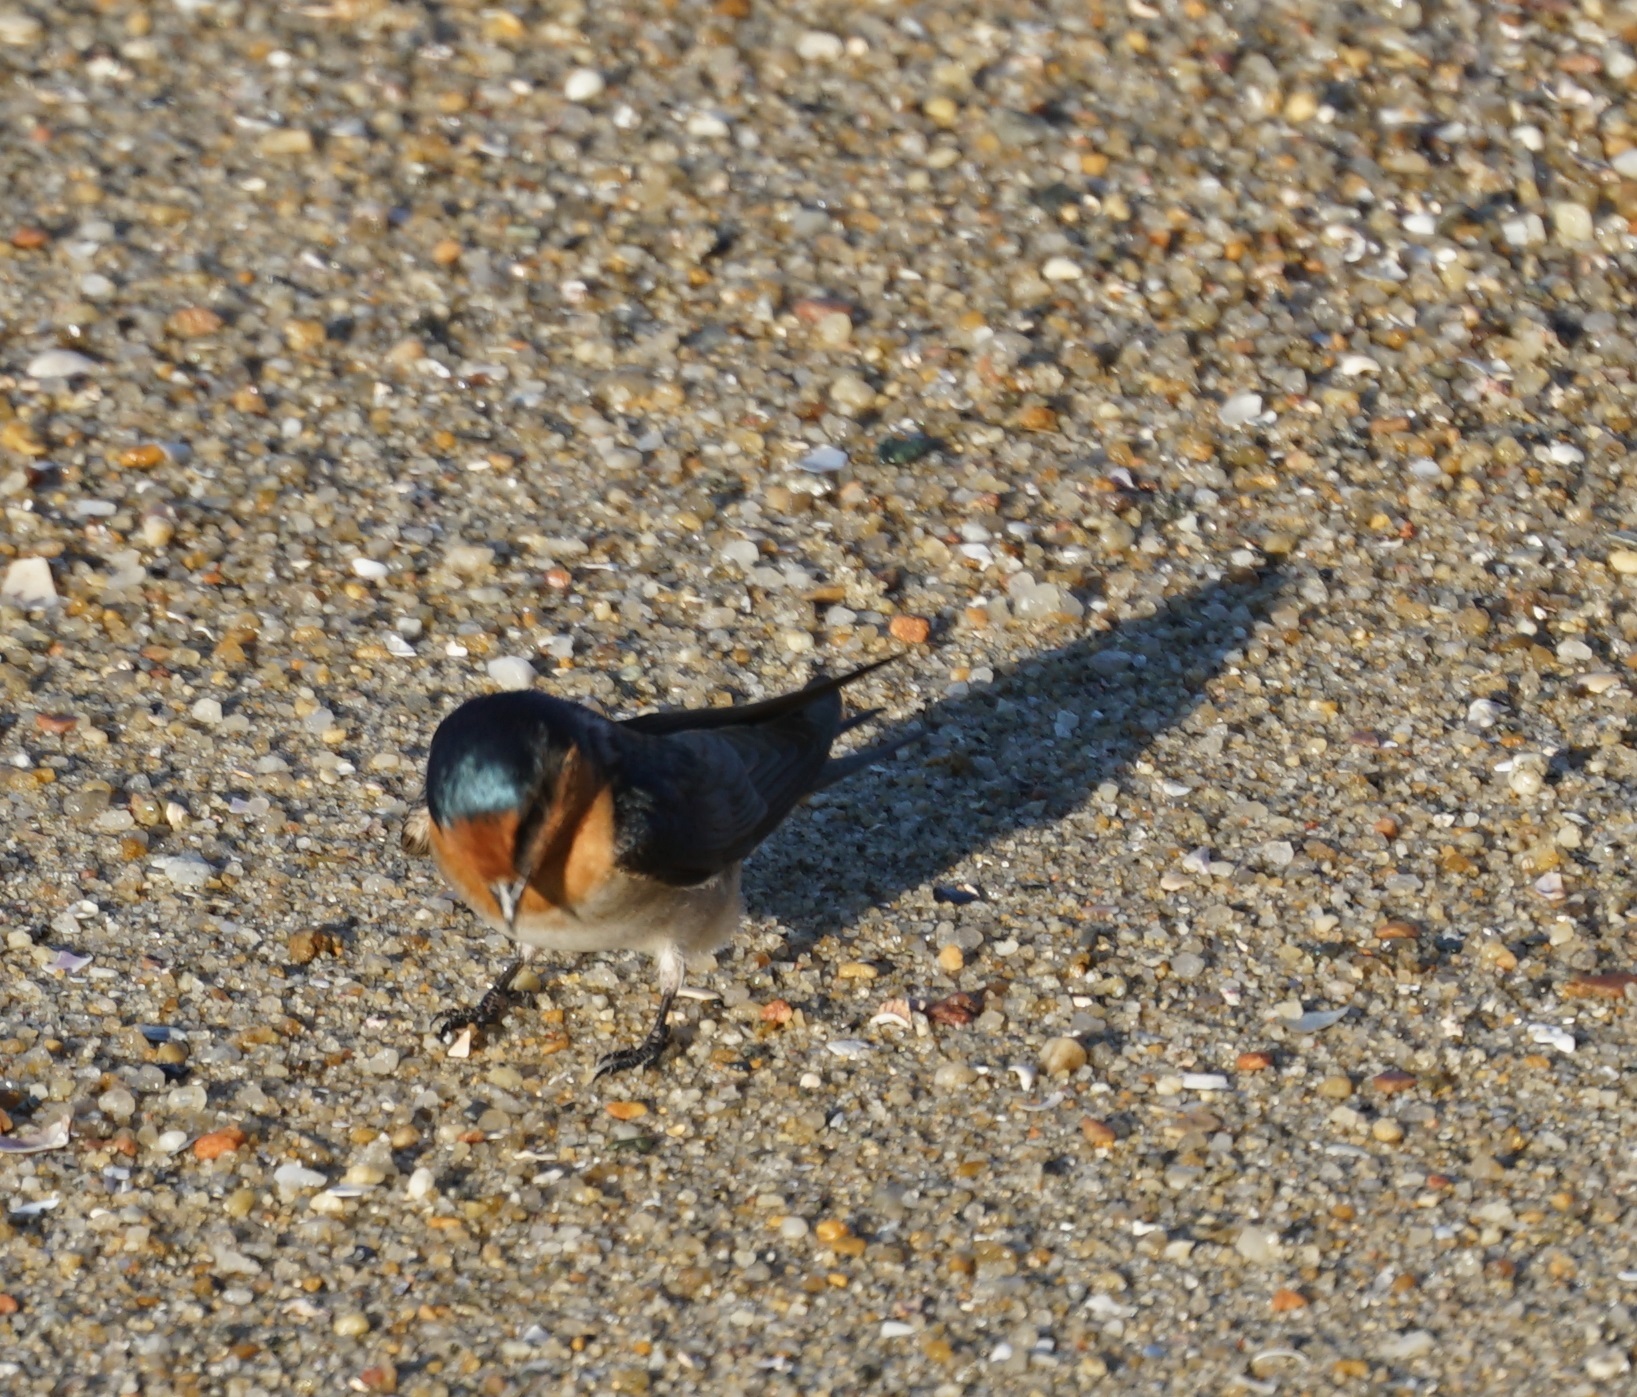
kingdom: Animalia
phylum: Chordata
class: Aves
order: Passeriformes
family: Hirundinidae
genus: Hirundo
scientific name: Hirundo neoxena
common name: Welcome swallow
